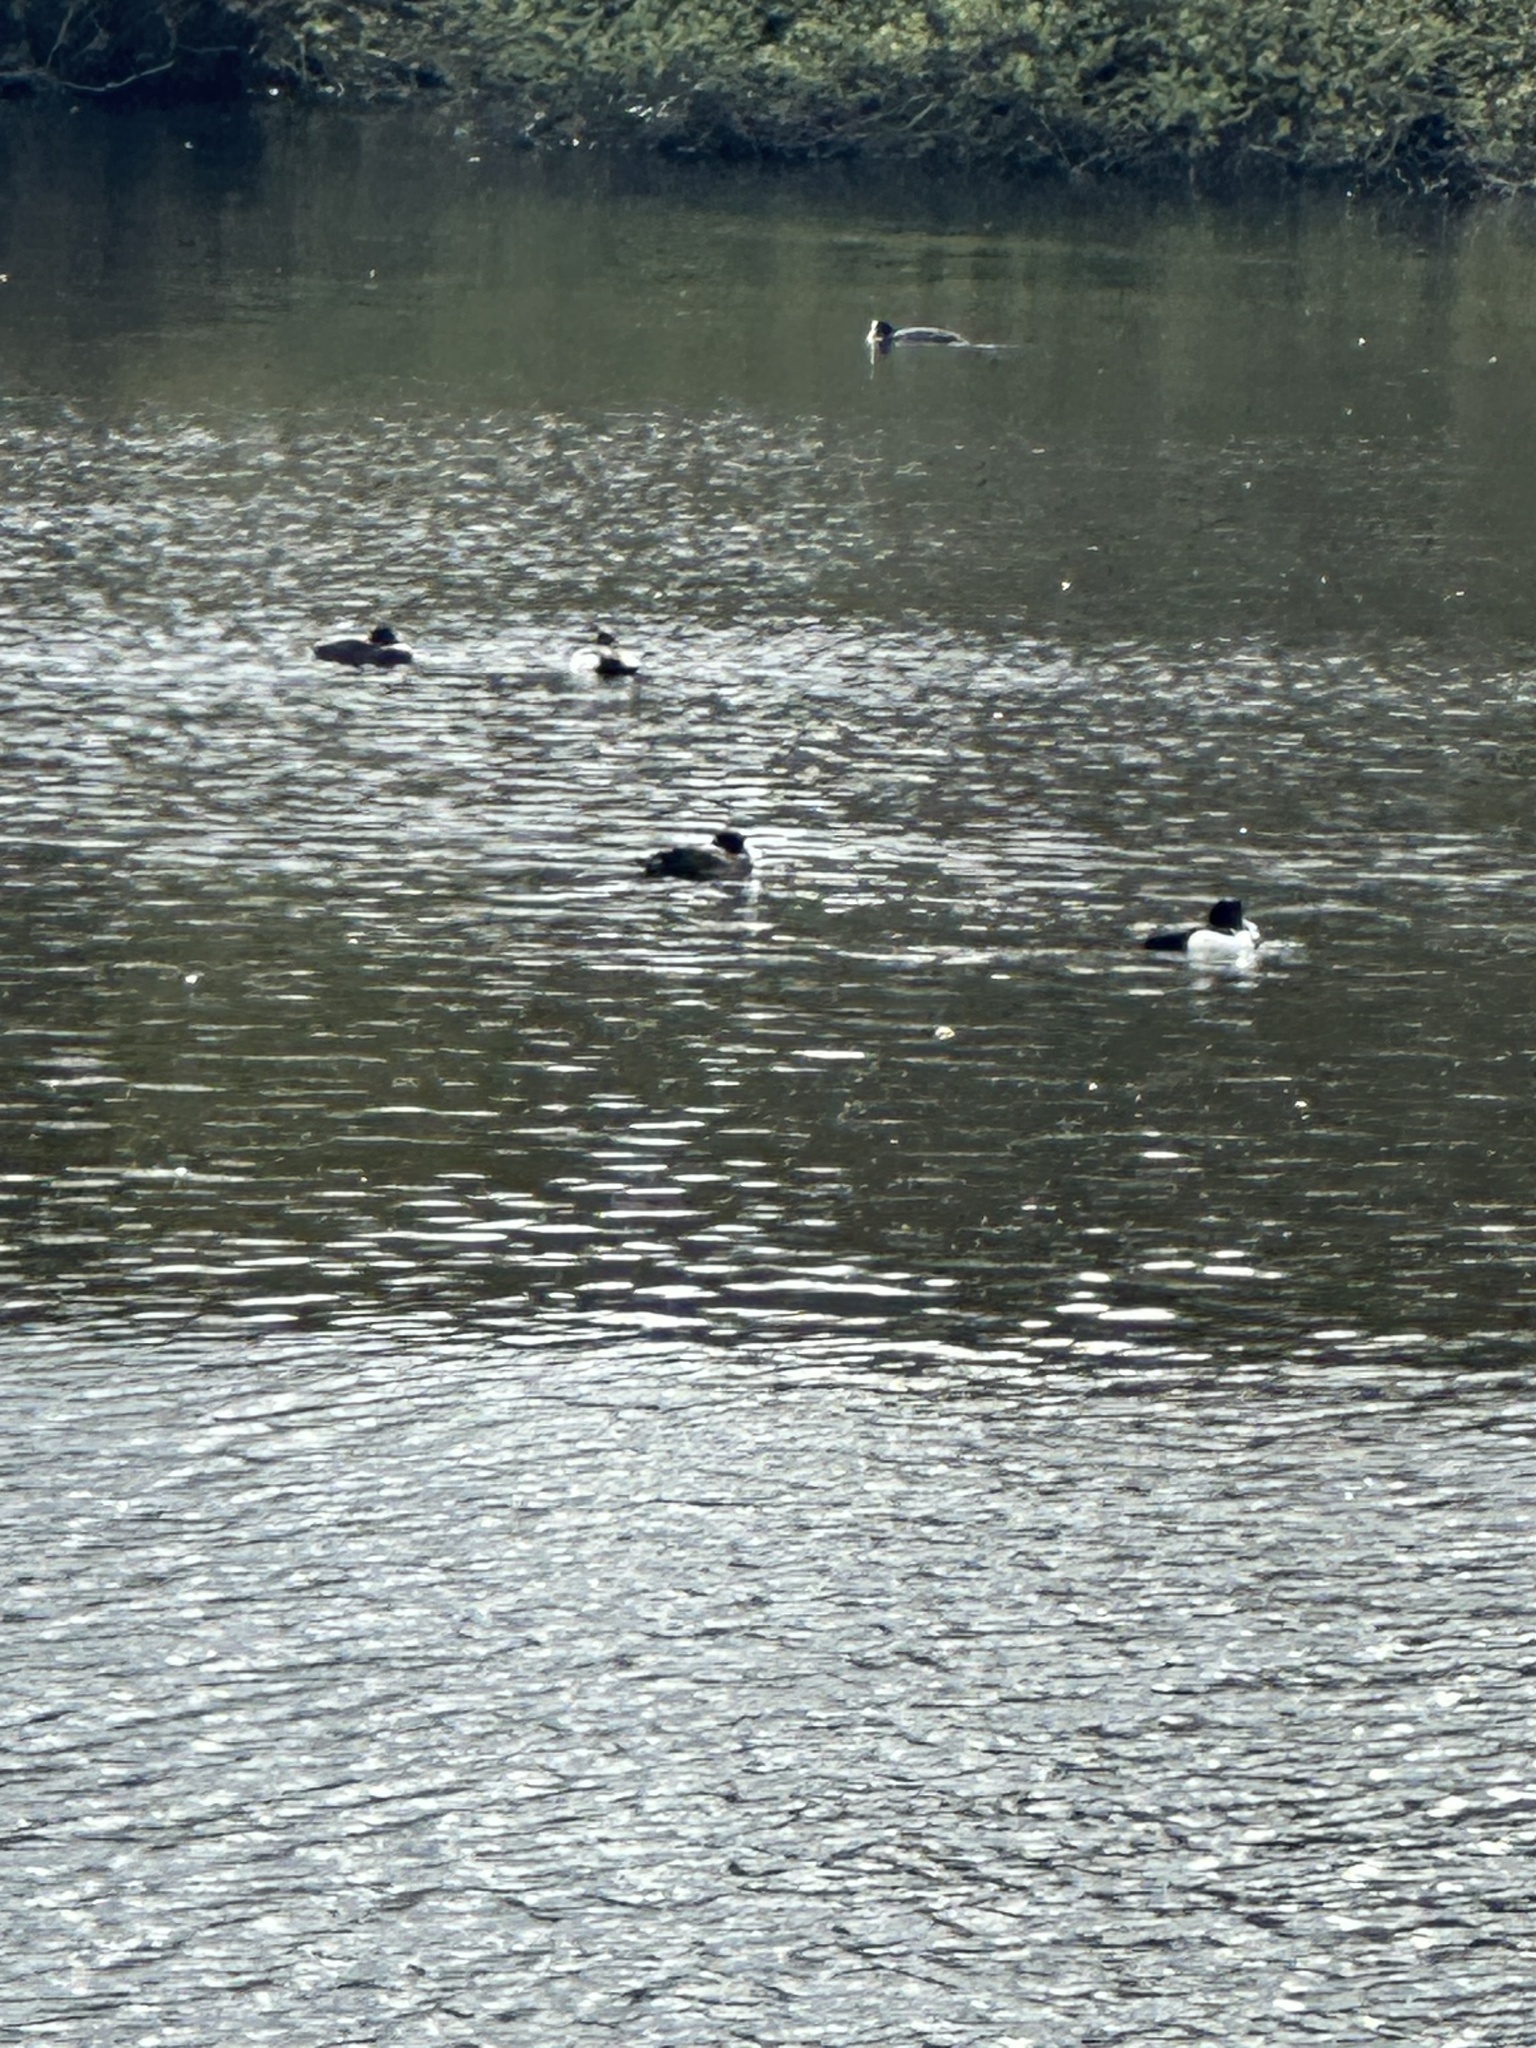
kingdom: Animalia
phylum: Chordata
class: Aves
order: Anseriformes
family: Anatidae
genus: Aythya
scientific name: Aythya fuligula
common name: Tufted duck
